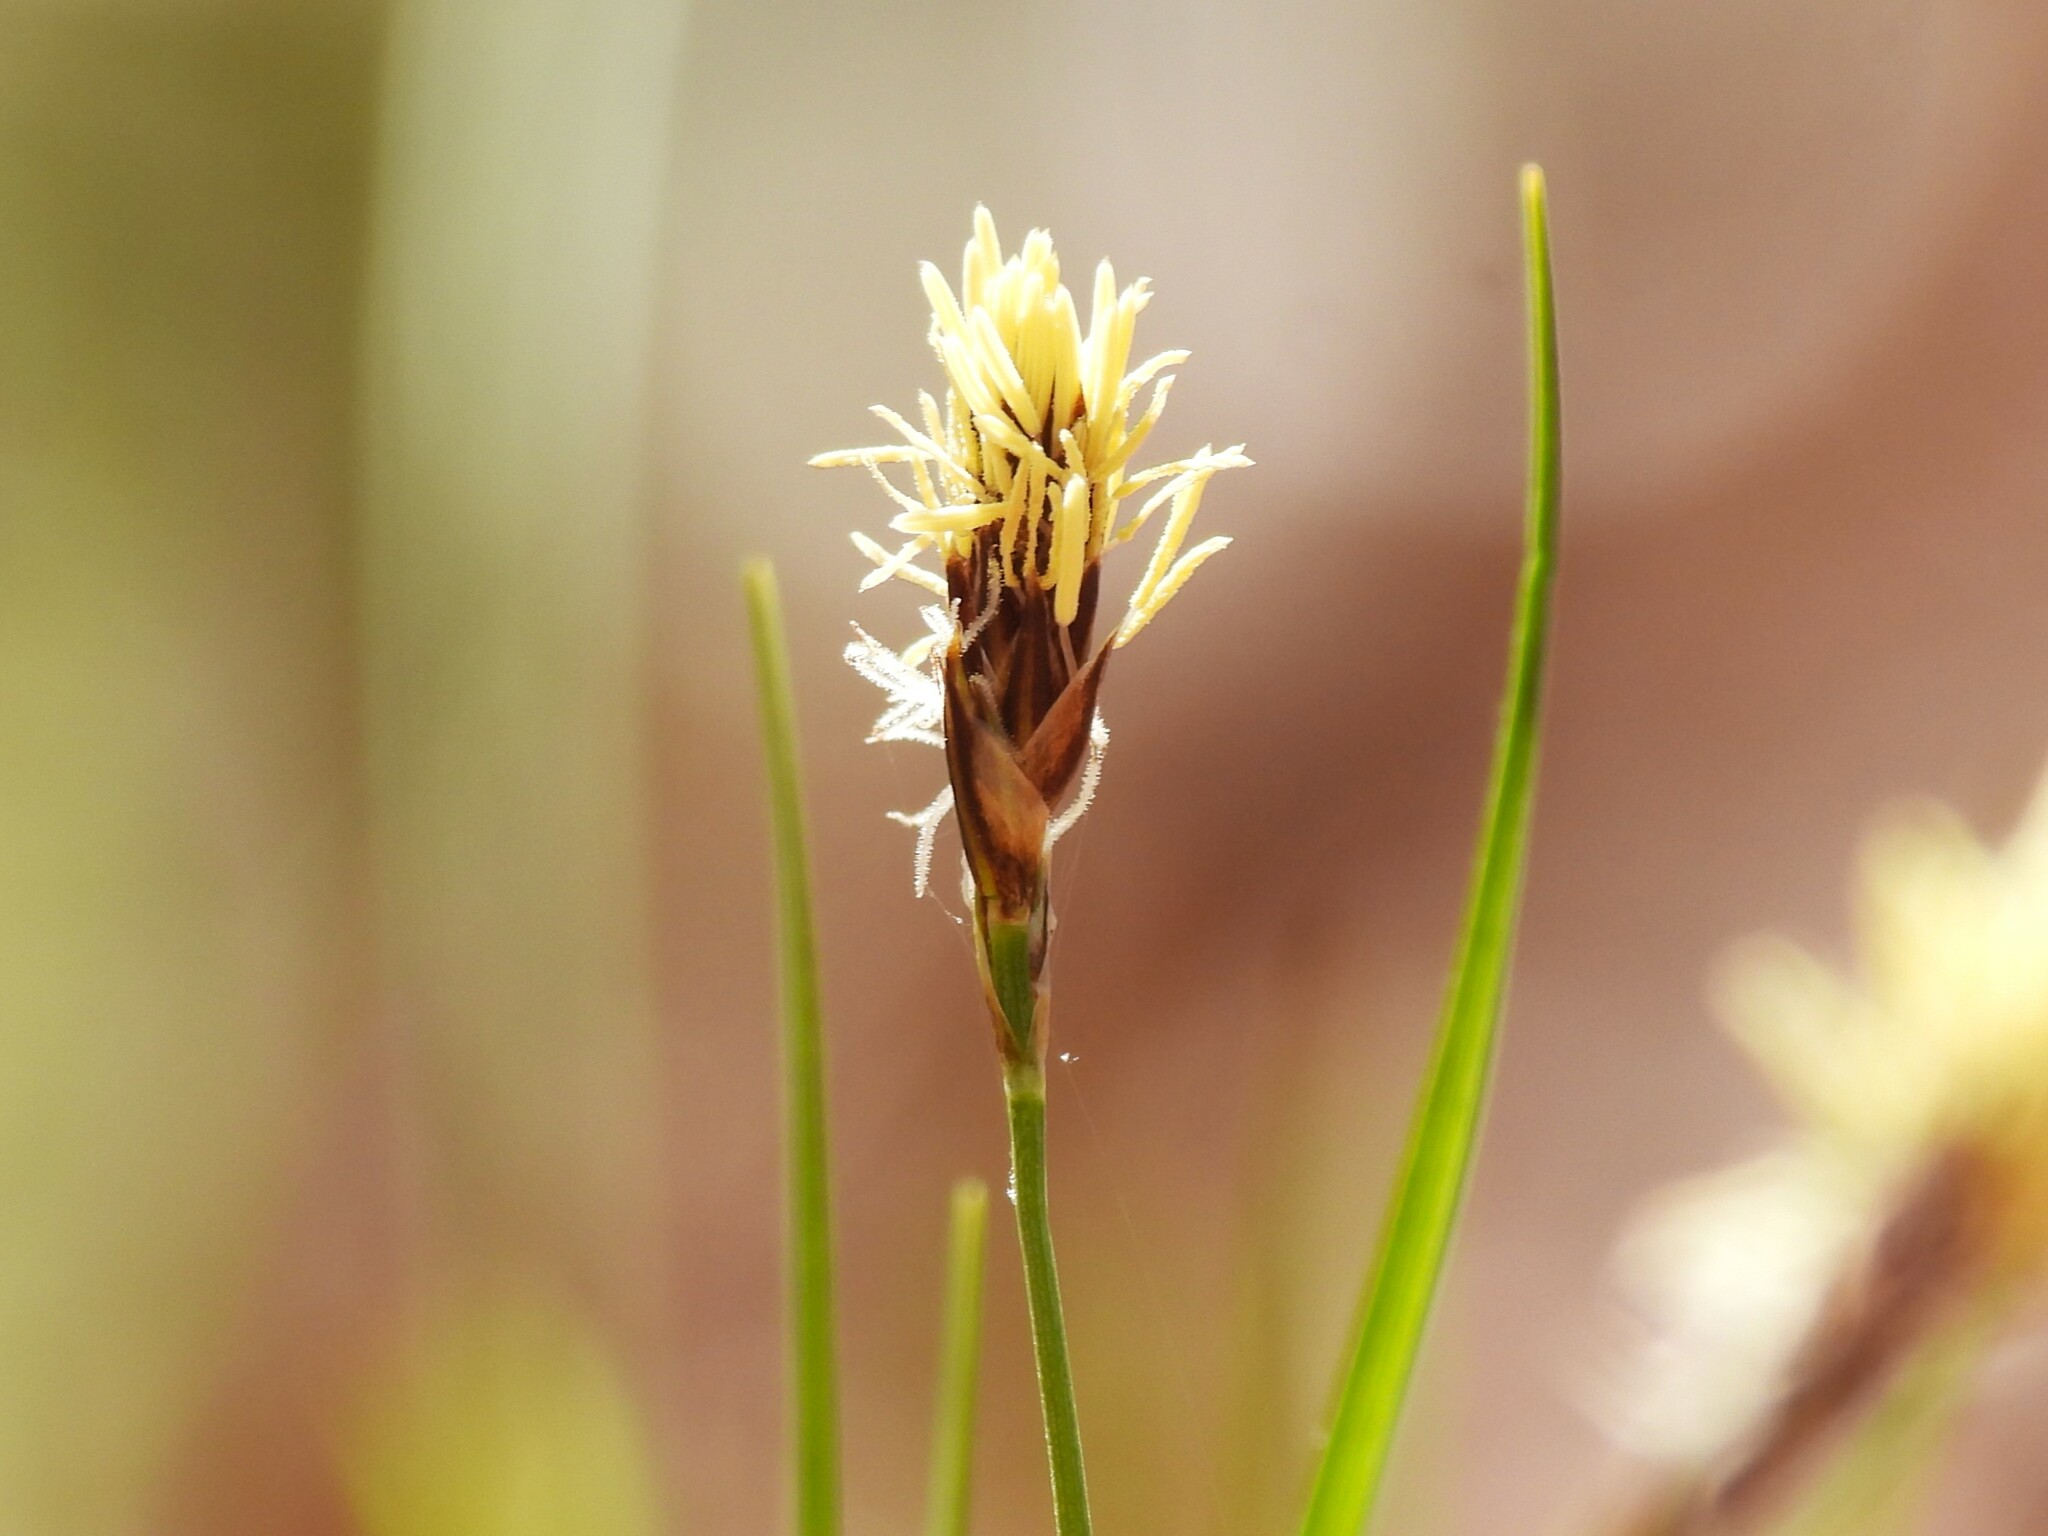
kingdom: Plantae
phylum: Tracheophyta
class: Liliopsida
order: Poales
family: Cyperaceae
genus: Carex
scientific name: Carex pensylvanica
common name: Common oak sedge
